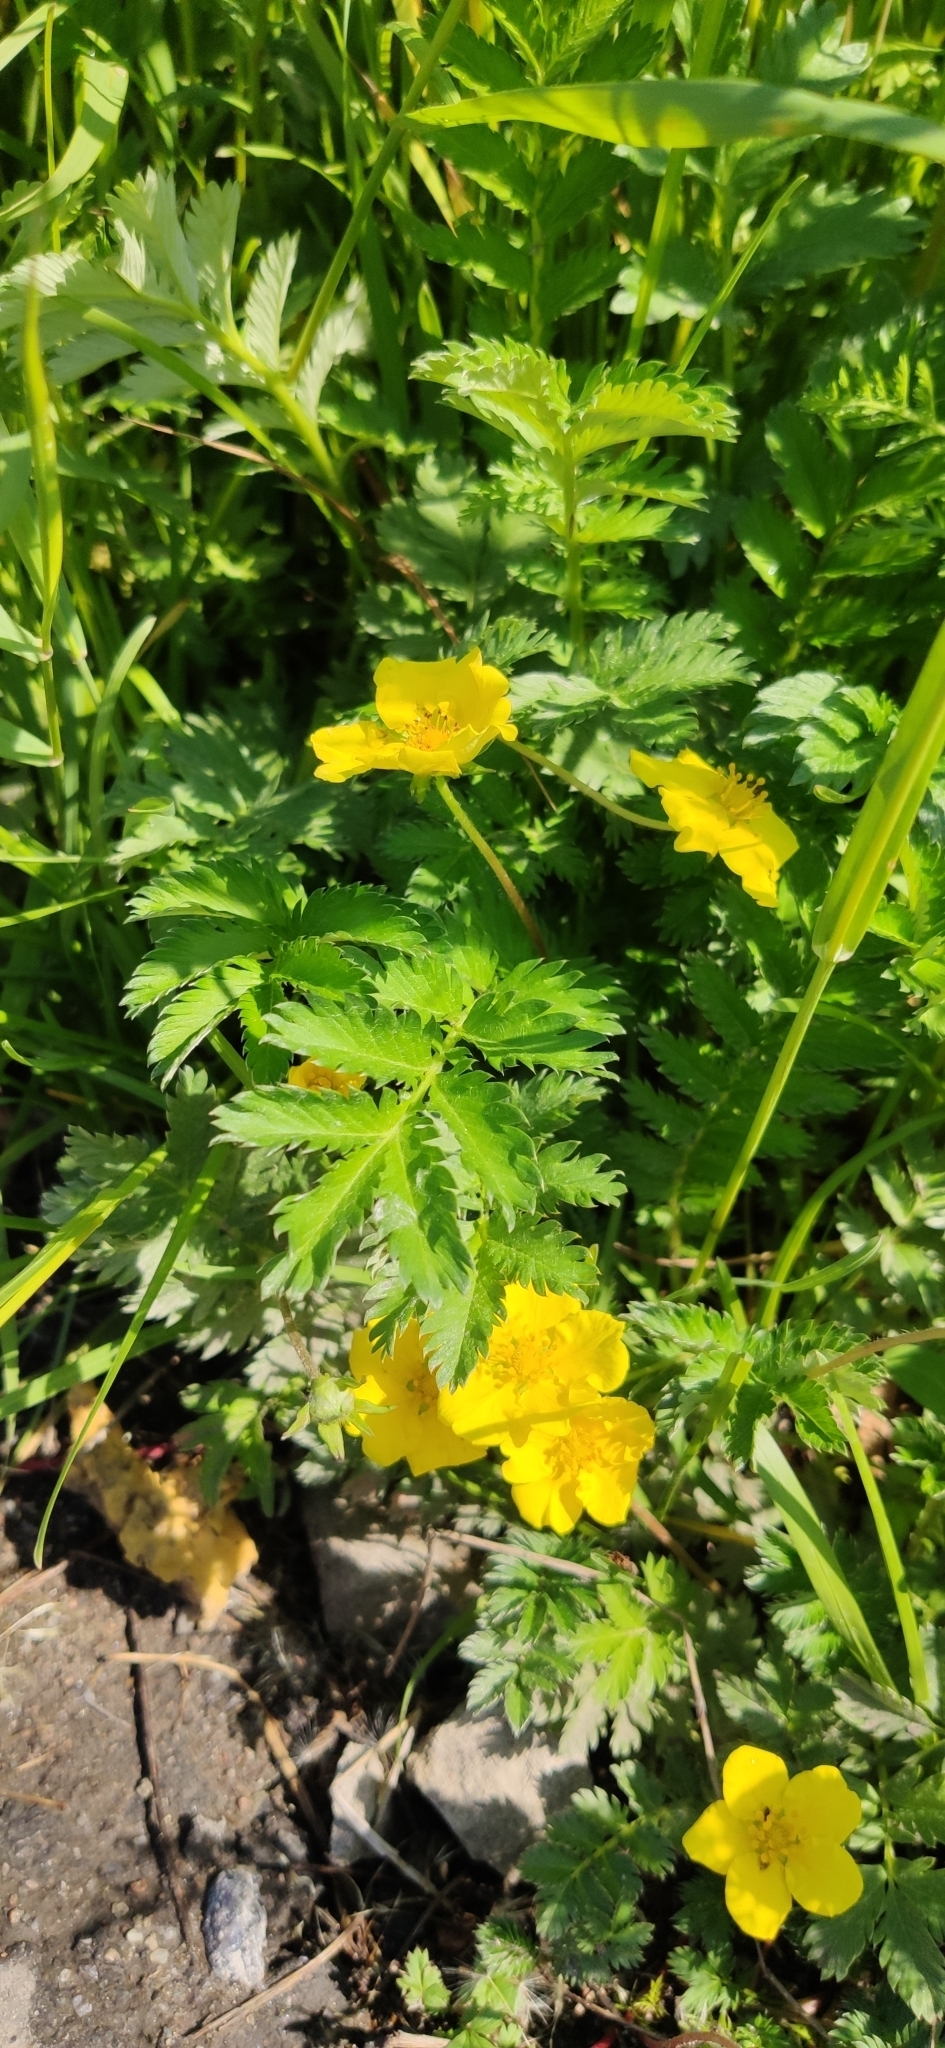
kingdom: Plantae
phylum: Tracheophyta
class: Magnoliopsida
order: Rosales
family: Rosaceae
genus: Argentina
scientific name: Argentina anserina
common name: Common silverweed
